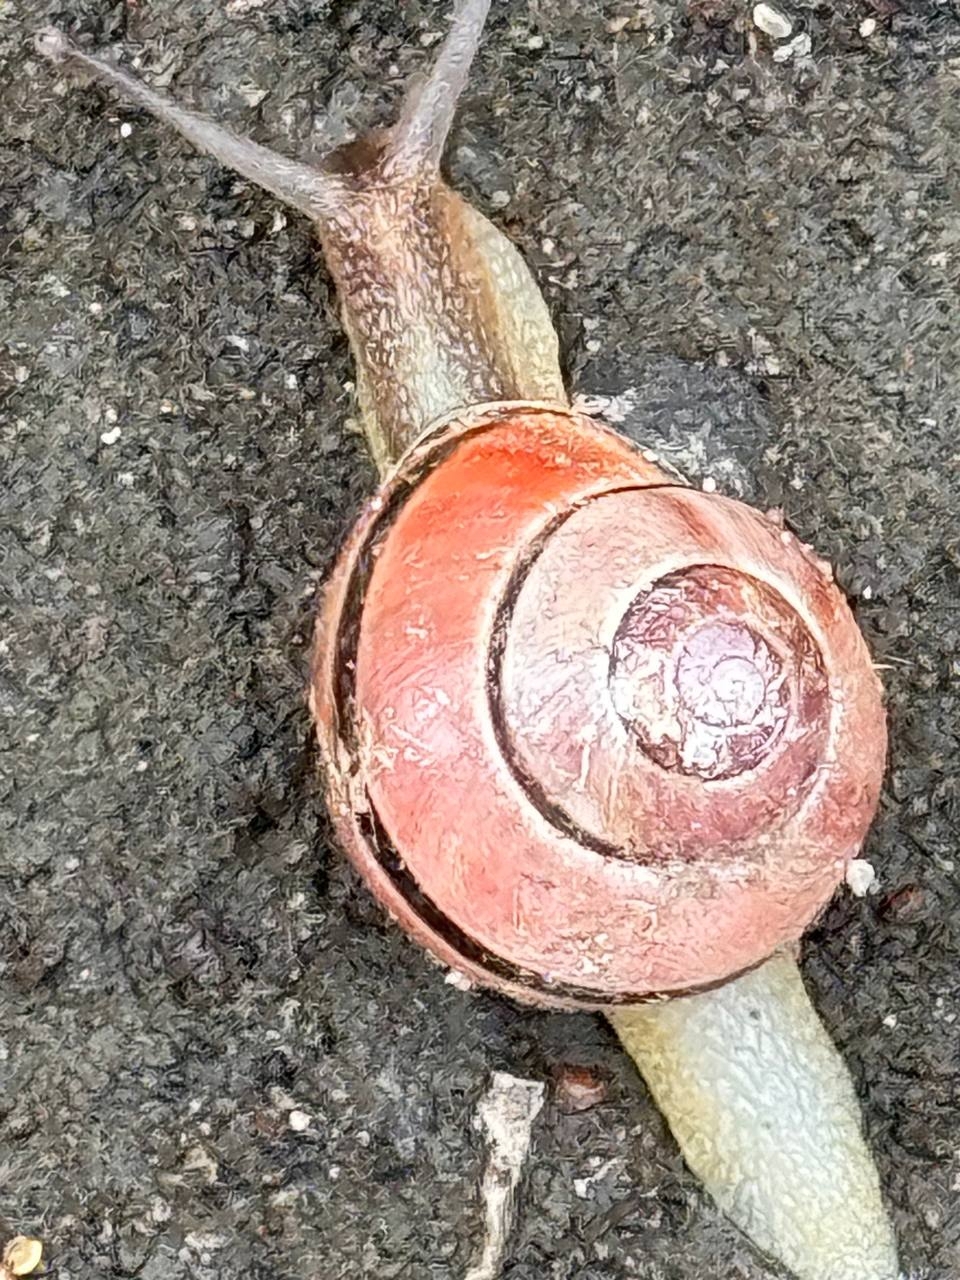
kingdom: Animalia
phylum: Mollusca
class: Gastropoda
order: Stylommatophora
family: Helicidae
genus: Cepaea
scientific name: Cepaea nemoralis
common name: Grovesnail
